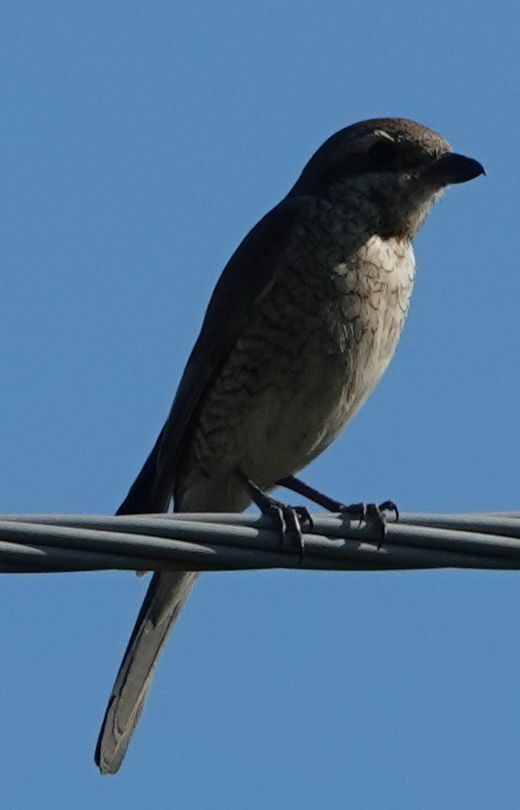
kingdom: Animalia
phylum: Chordata
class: Aves
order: Passeriformes
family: Laniidae
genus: Lanius
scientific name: Lanius collurio
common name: Red-backed shrike
